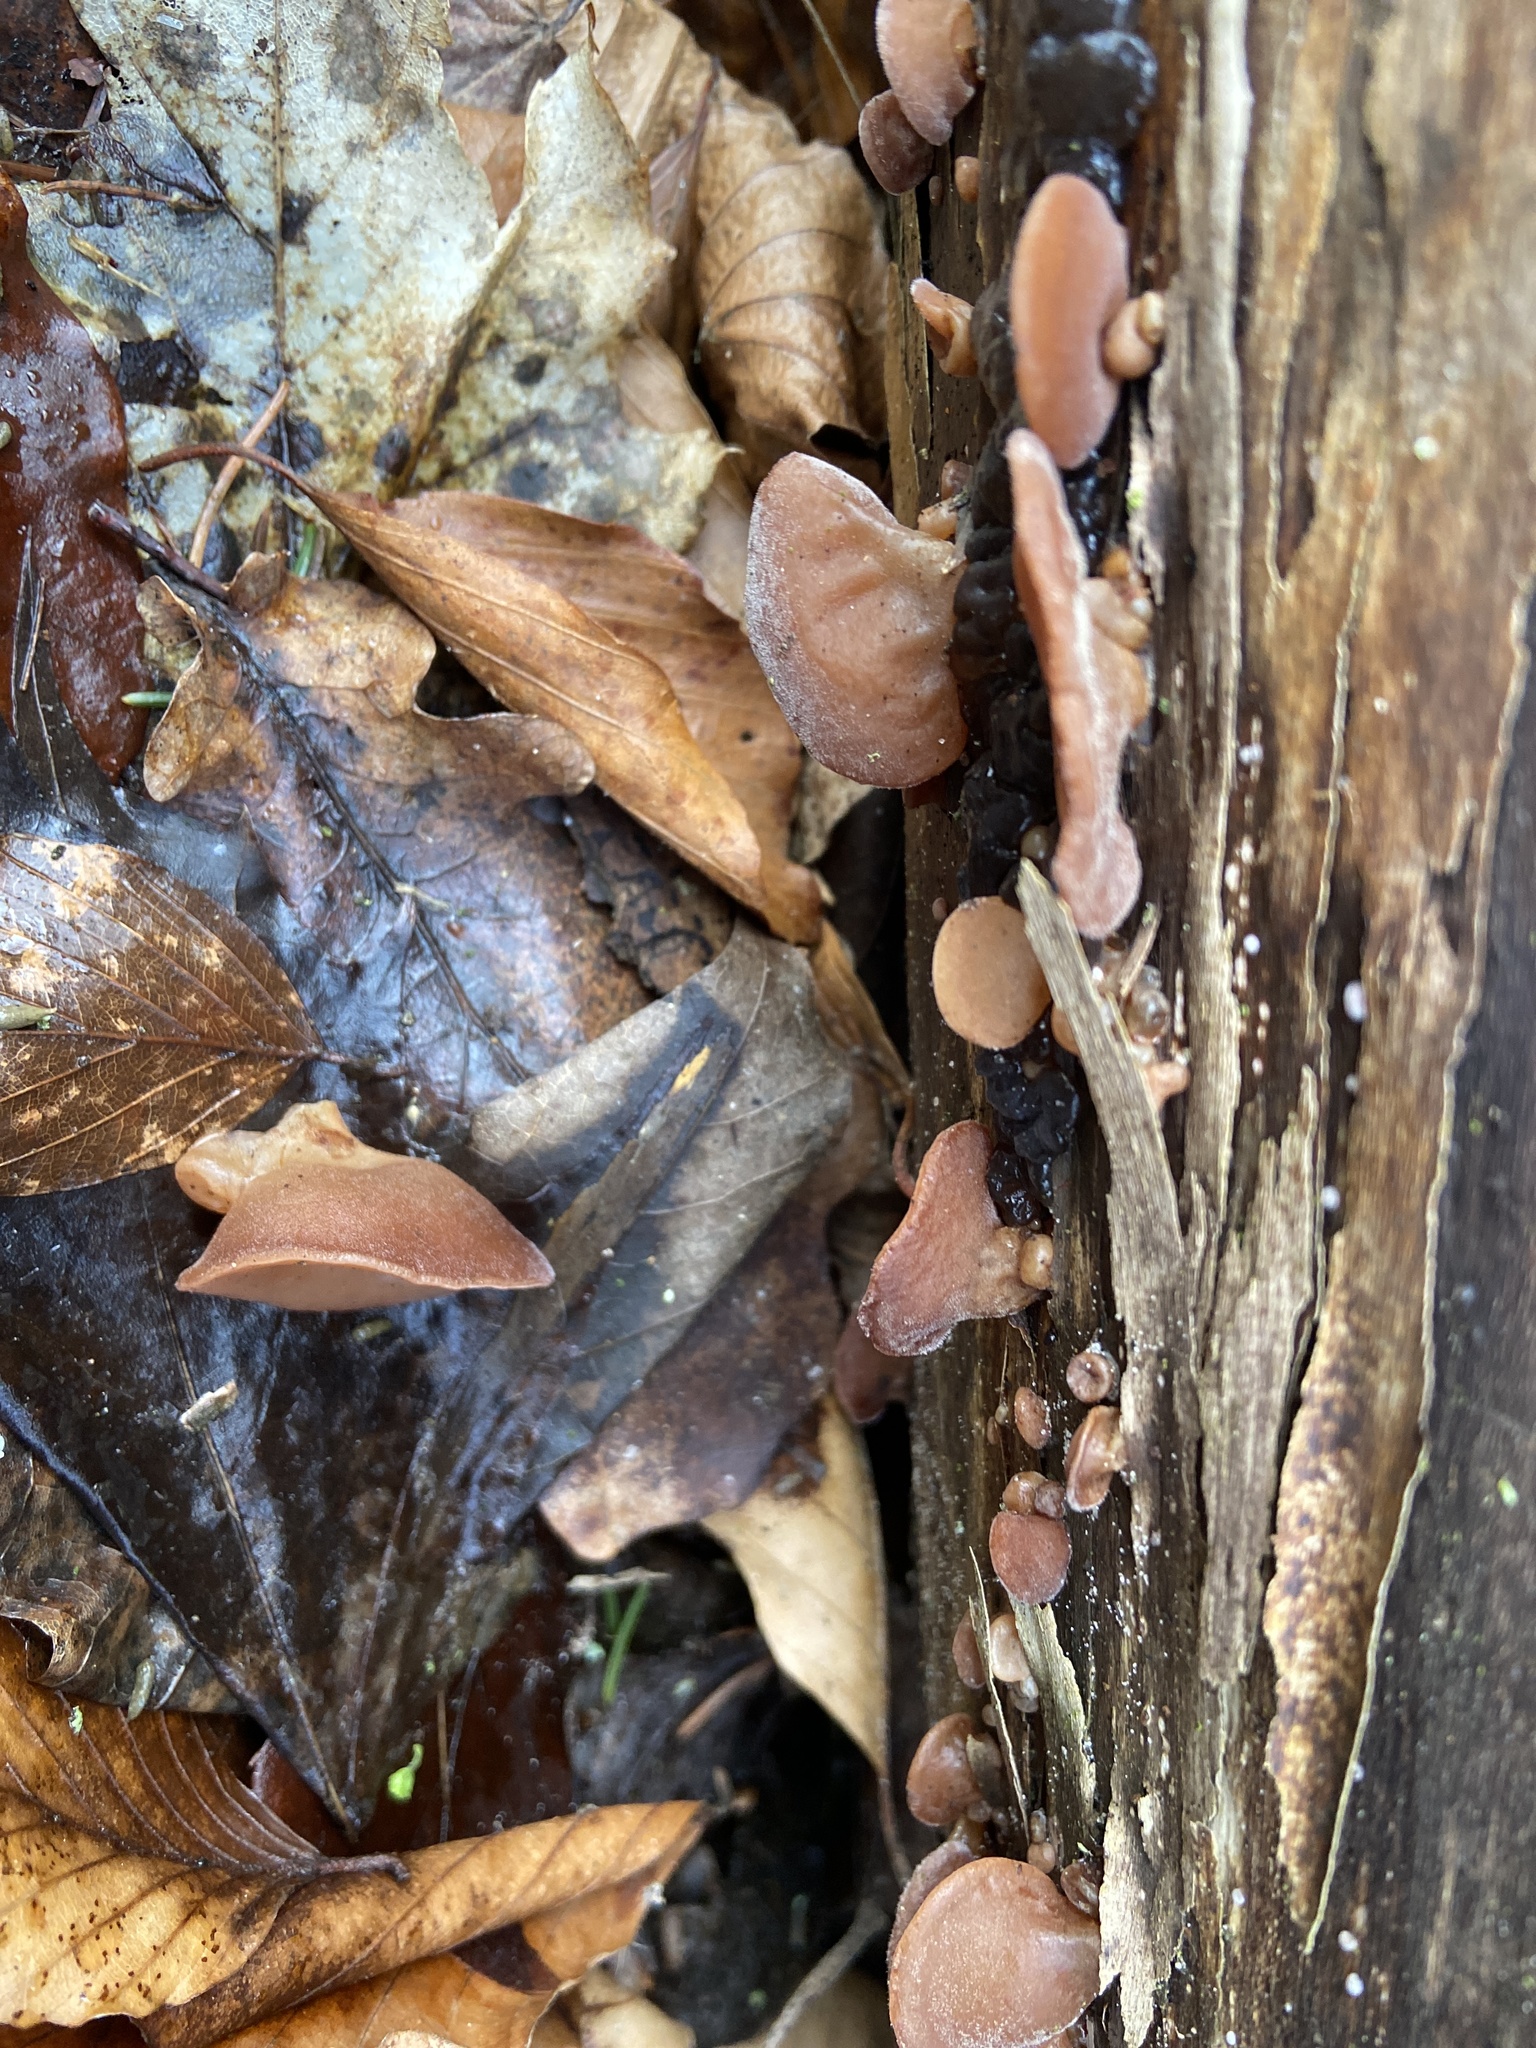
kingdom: Fungi
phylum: Basidiomycota
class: Agaricomycetes
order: Auriculariales
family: Auriculariaceae
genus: Auricularia
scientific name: Auricularia auricula-judae
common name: Jelly ear
